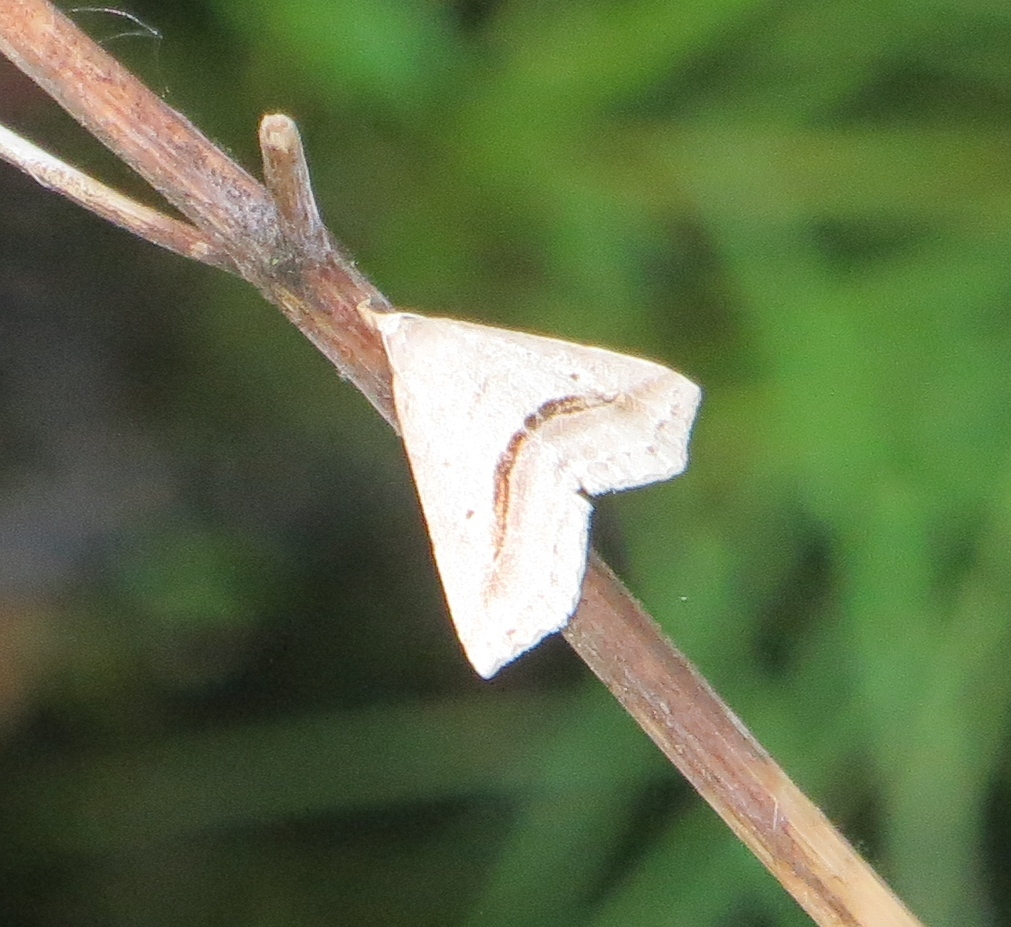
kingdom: Animalia
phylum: Arthropoda
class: Insecta
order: Lepidoptera
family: Erebidae
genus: Spargaloma
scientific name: Spargaloma perditalis
